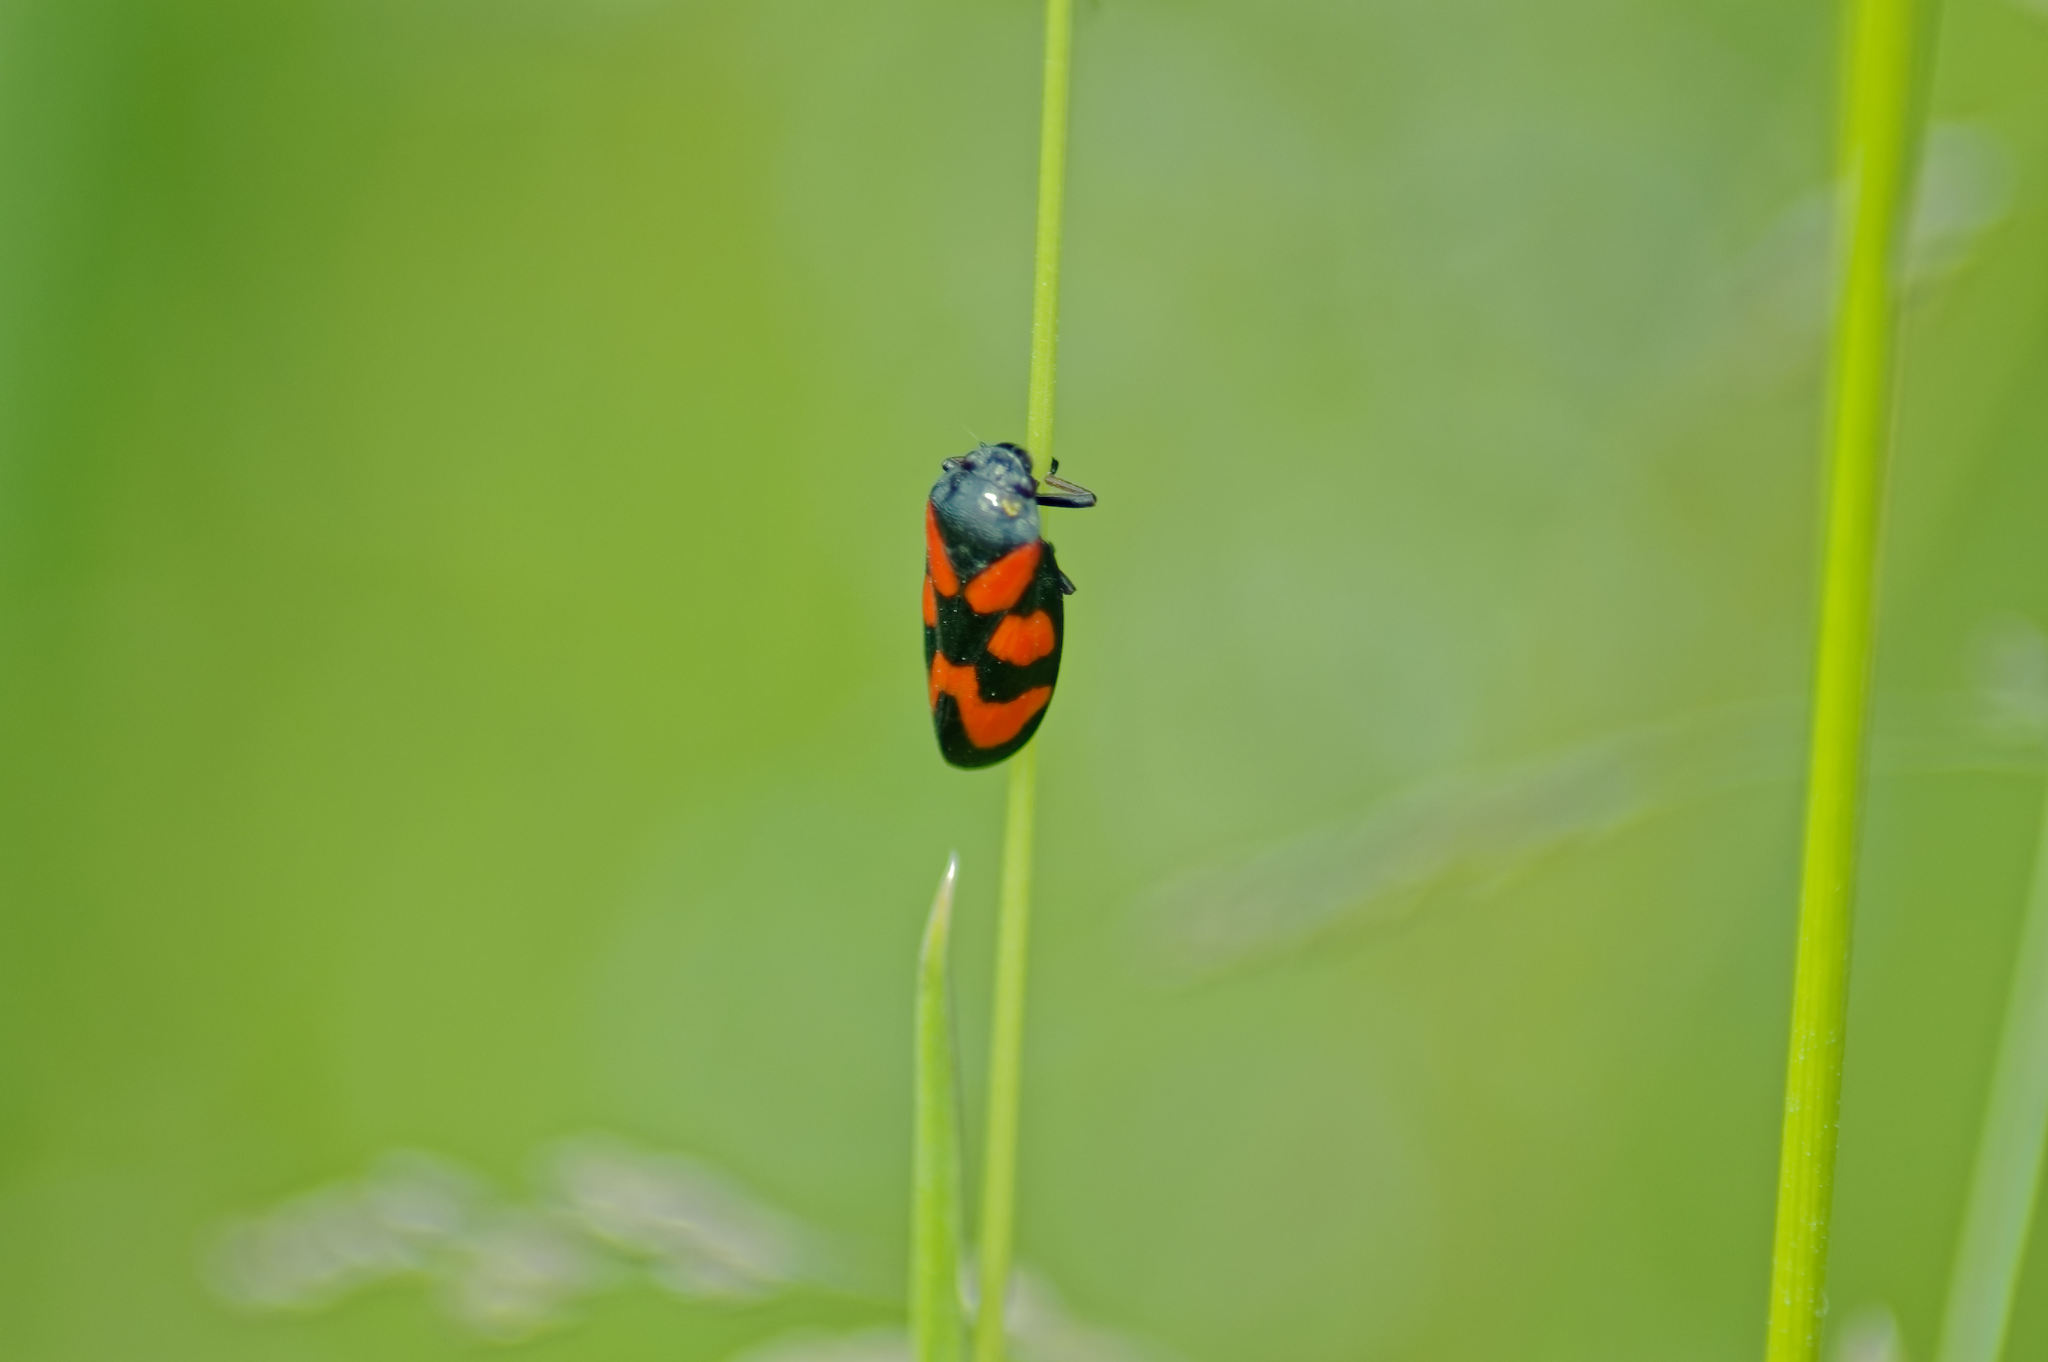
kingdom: Animalia
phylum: Arthropoda
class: Insecta
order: Hemiptera
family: Cercopidae
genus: Cercopis
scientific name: Cercopis vulnerata
